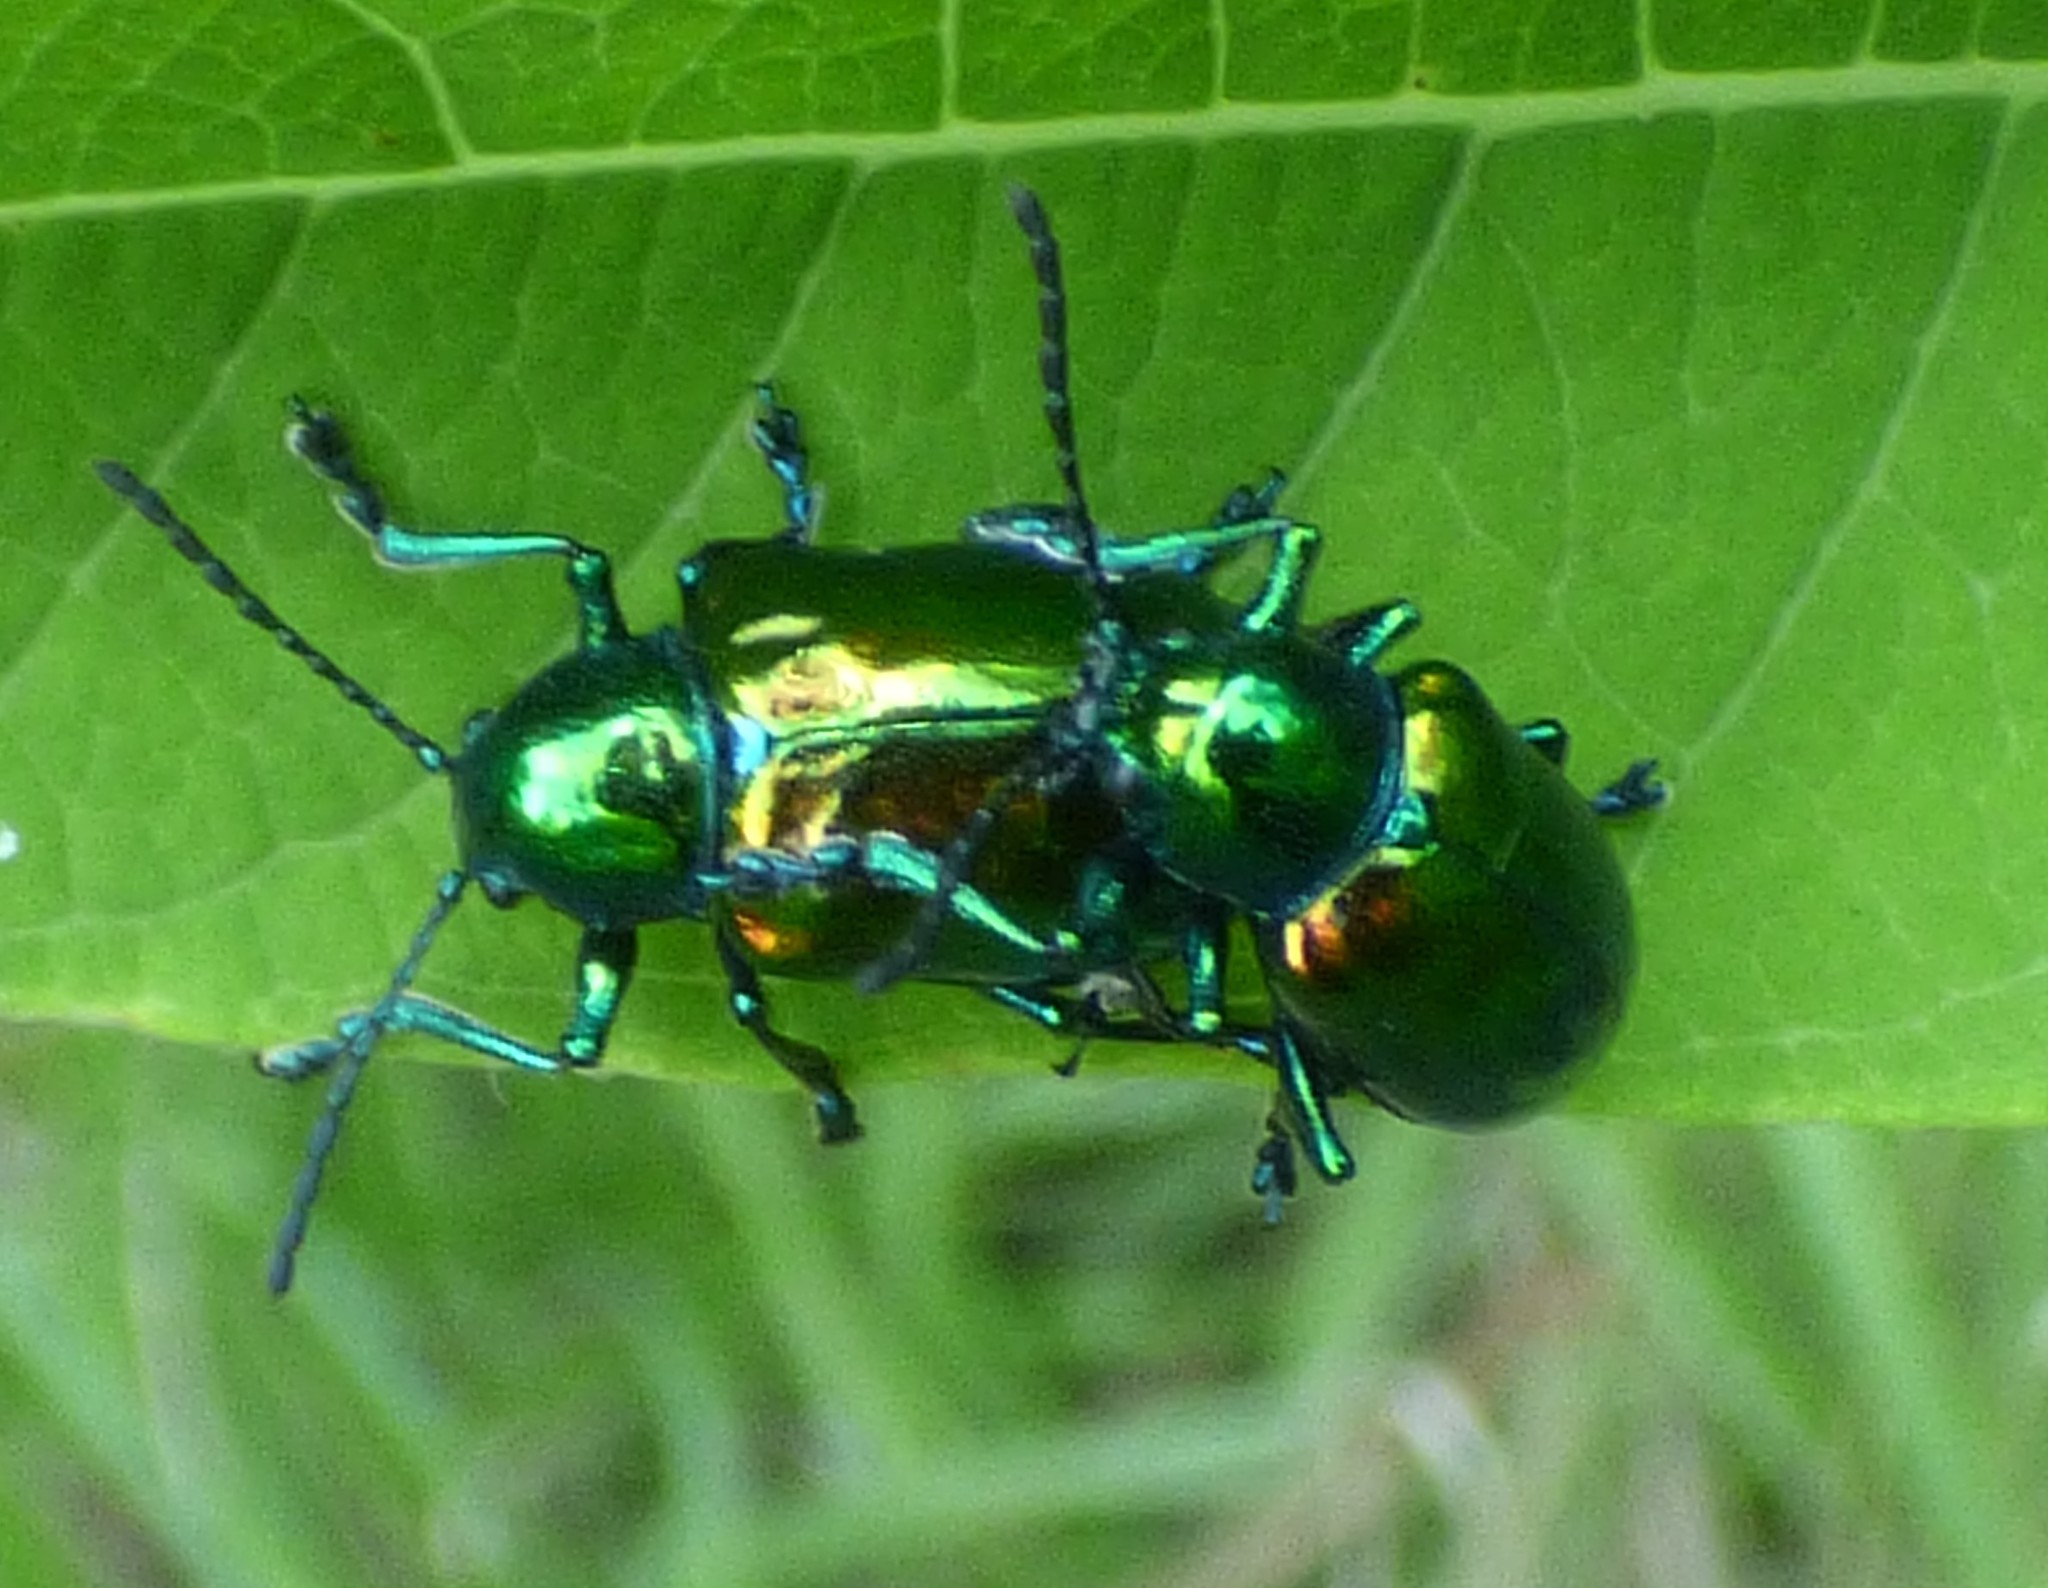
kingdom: Animalia
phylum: Arthropoda
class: Insecta
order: Coleoptera
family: Chrysomelidae
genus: Chrysochus
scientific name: Chrysochus auratus
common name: Dogbane leaf beetle
